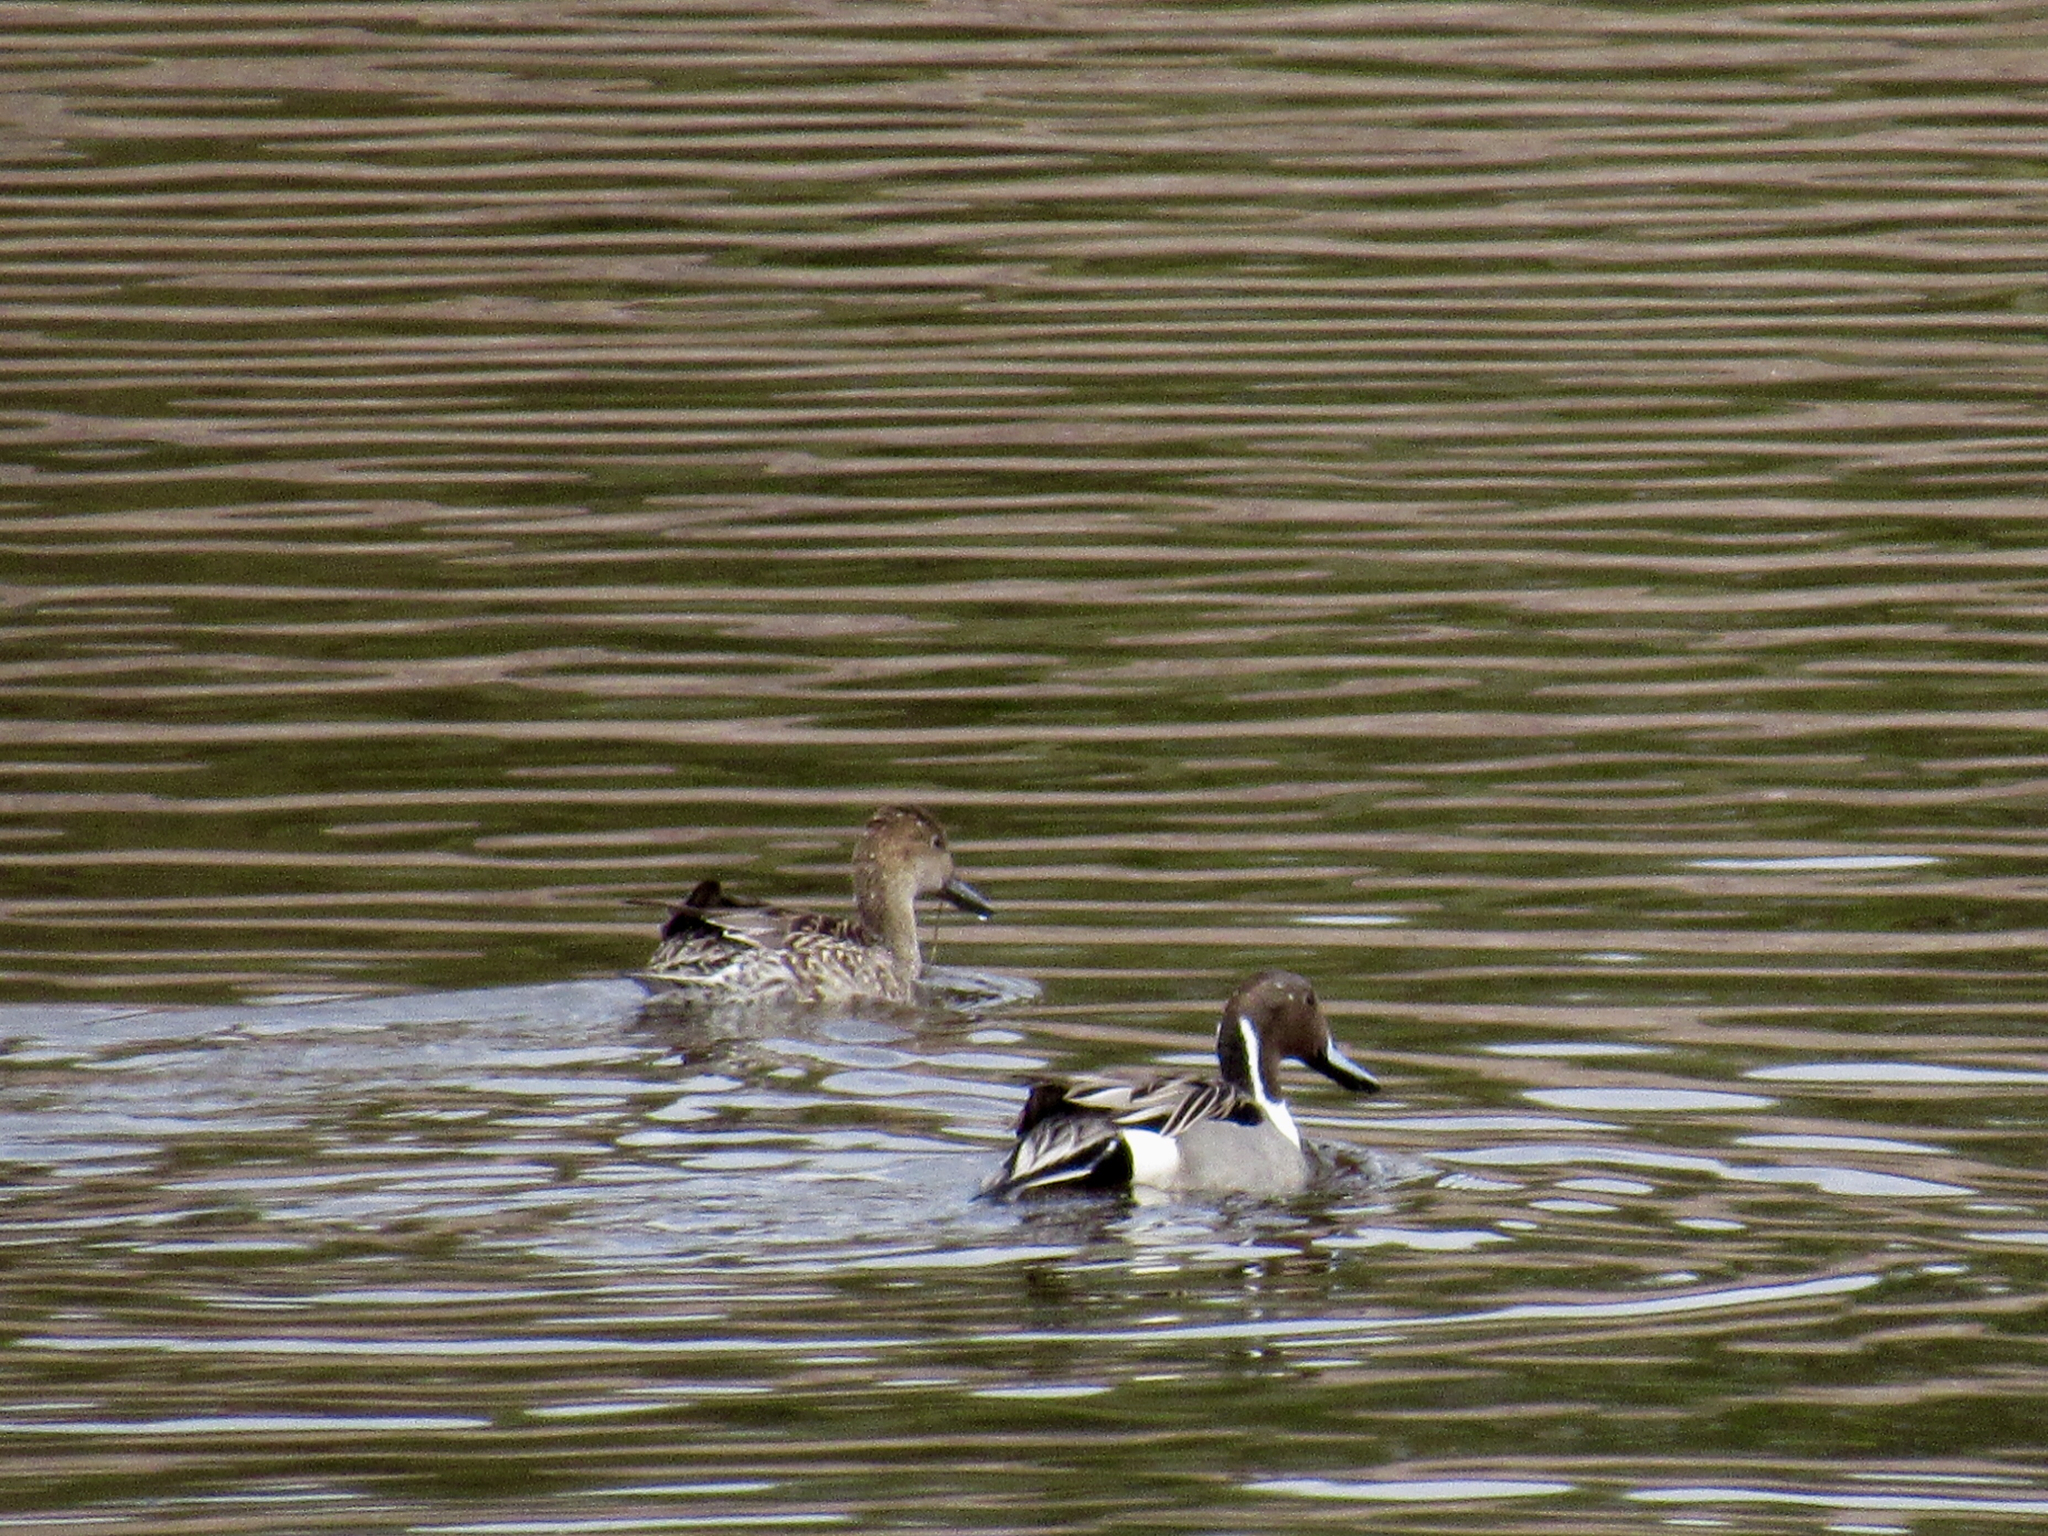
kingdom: Animalia
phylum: Chordata
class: Aves
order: Anseriformes
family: Anatidae
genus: Anas
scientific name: Anas acuta
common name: Northern pintail
